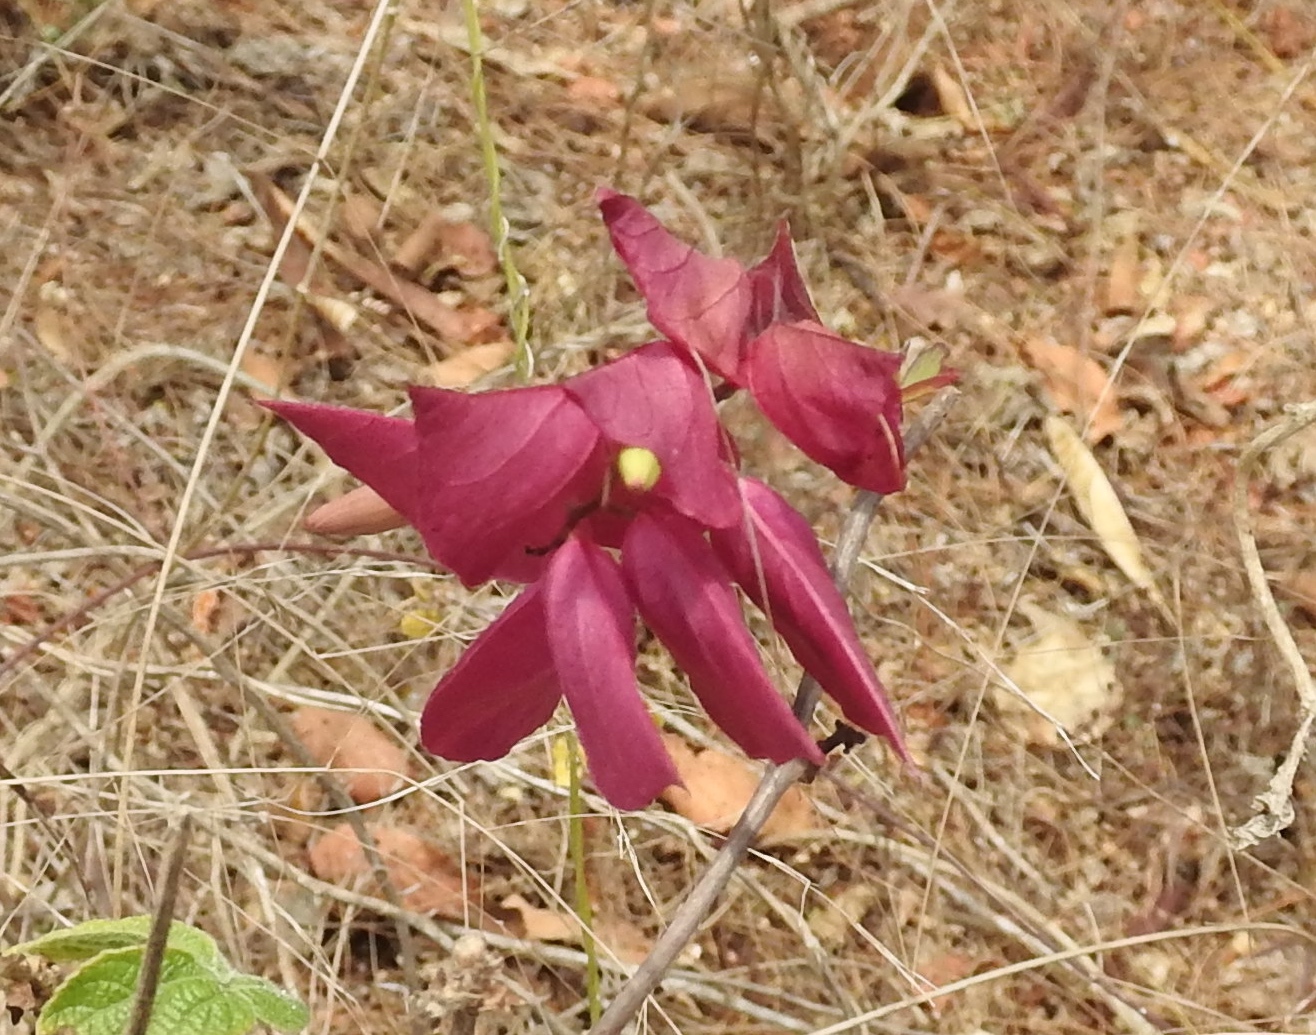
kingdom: Plantae
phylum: Tracheophyta
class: Magnoliopsida
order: Solanales
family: Convolvulaceae
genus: Ipomoea
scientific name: Ipomoea bracteata
